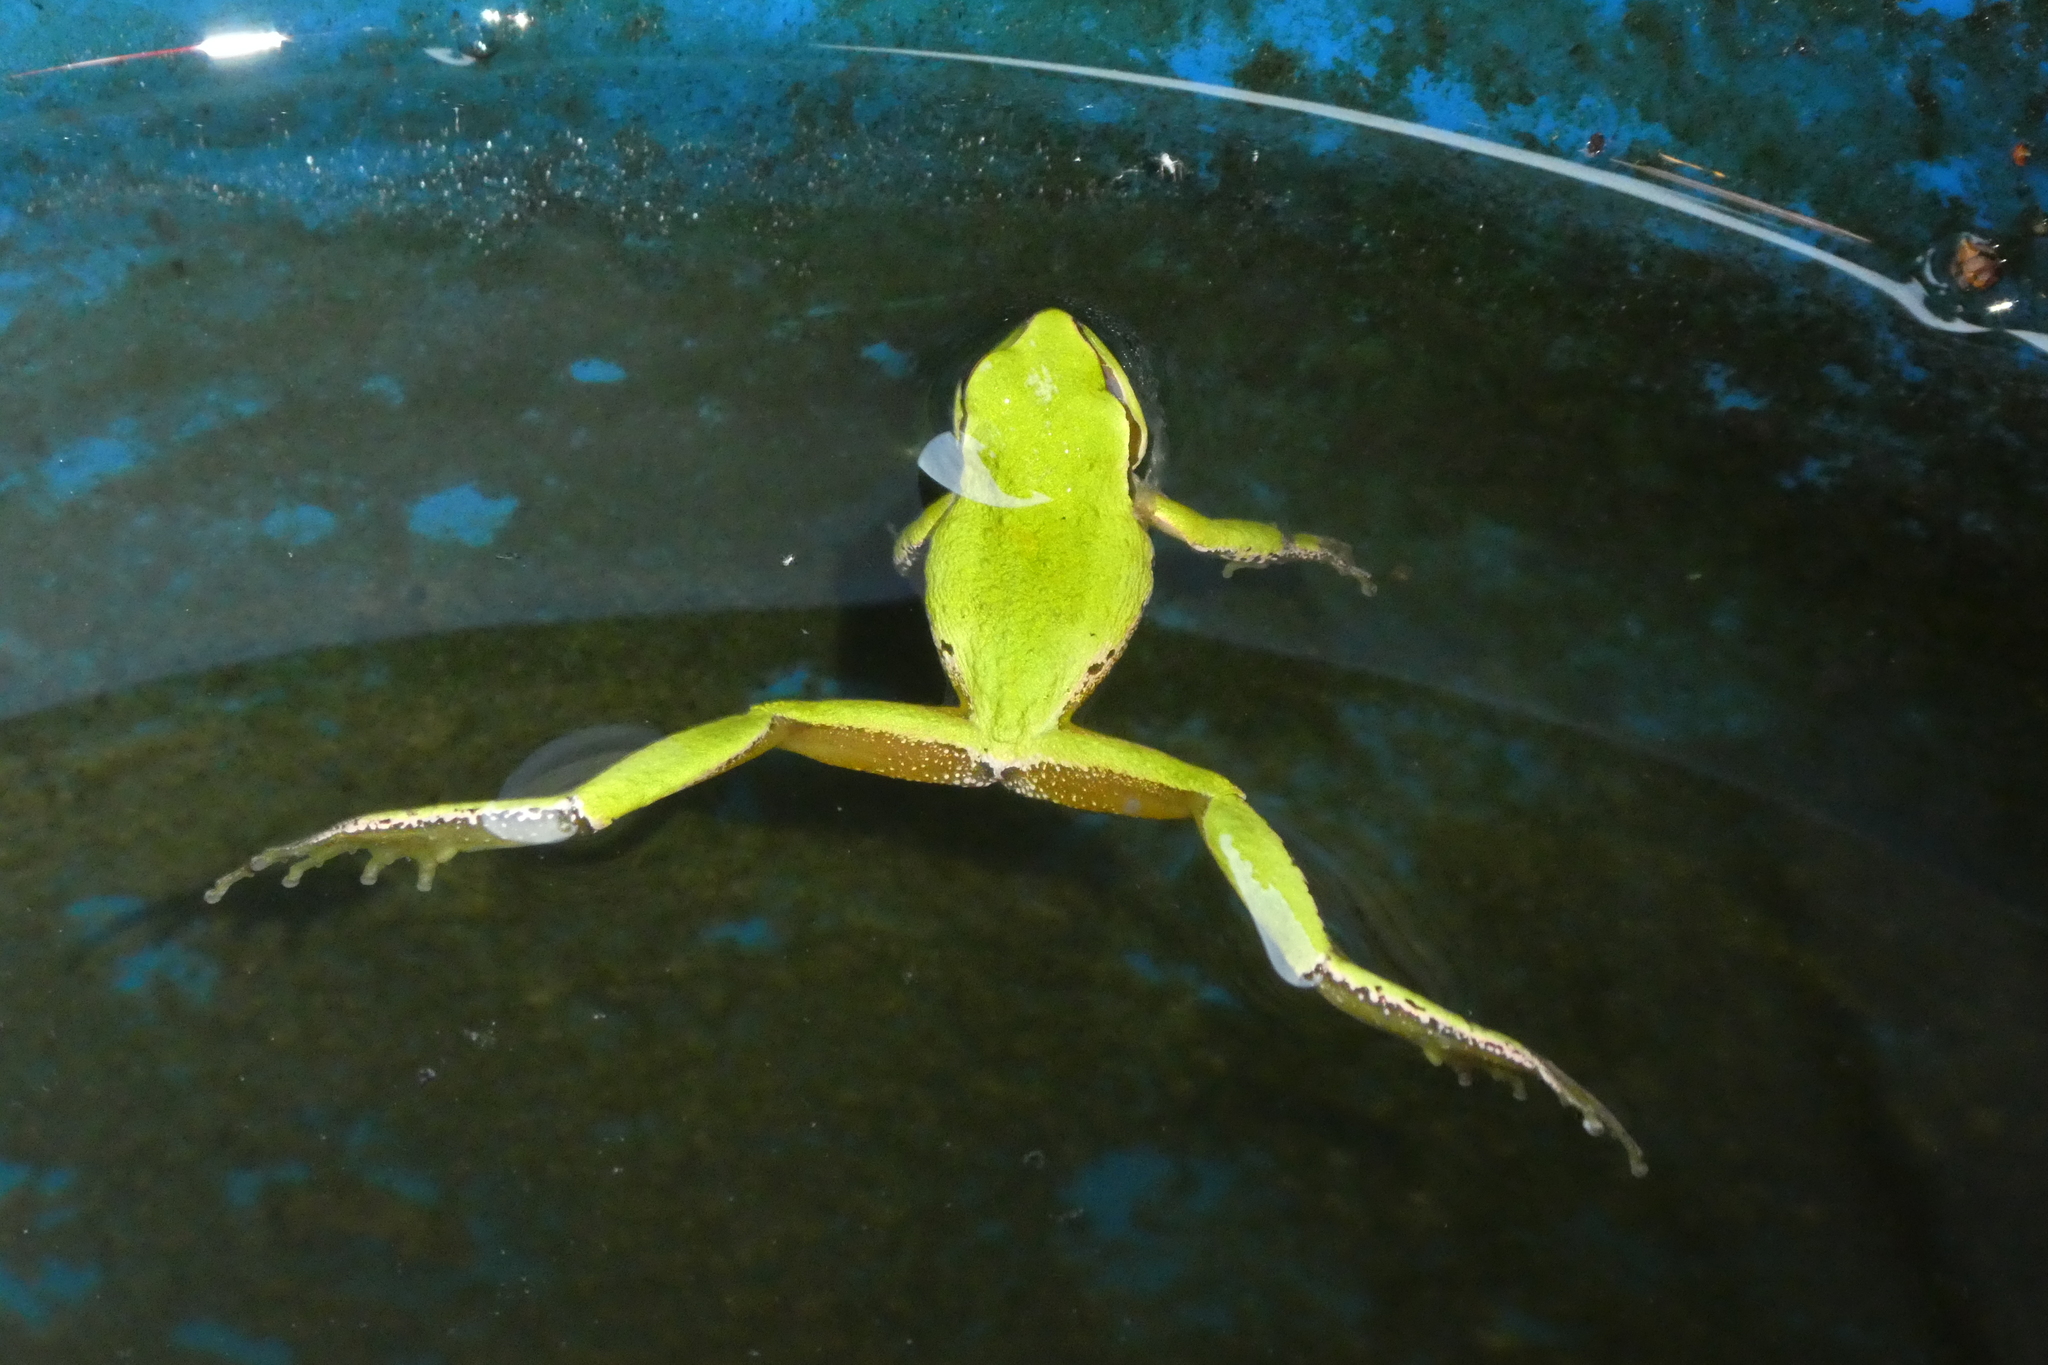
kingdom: Animalia
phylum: Chordata
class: Amphibia
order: Anura
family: Hylidae
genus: Pseudacris
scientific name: Pseudacris regilla
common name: Pacific chorus frog
